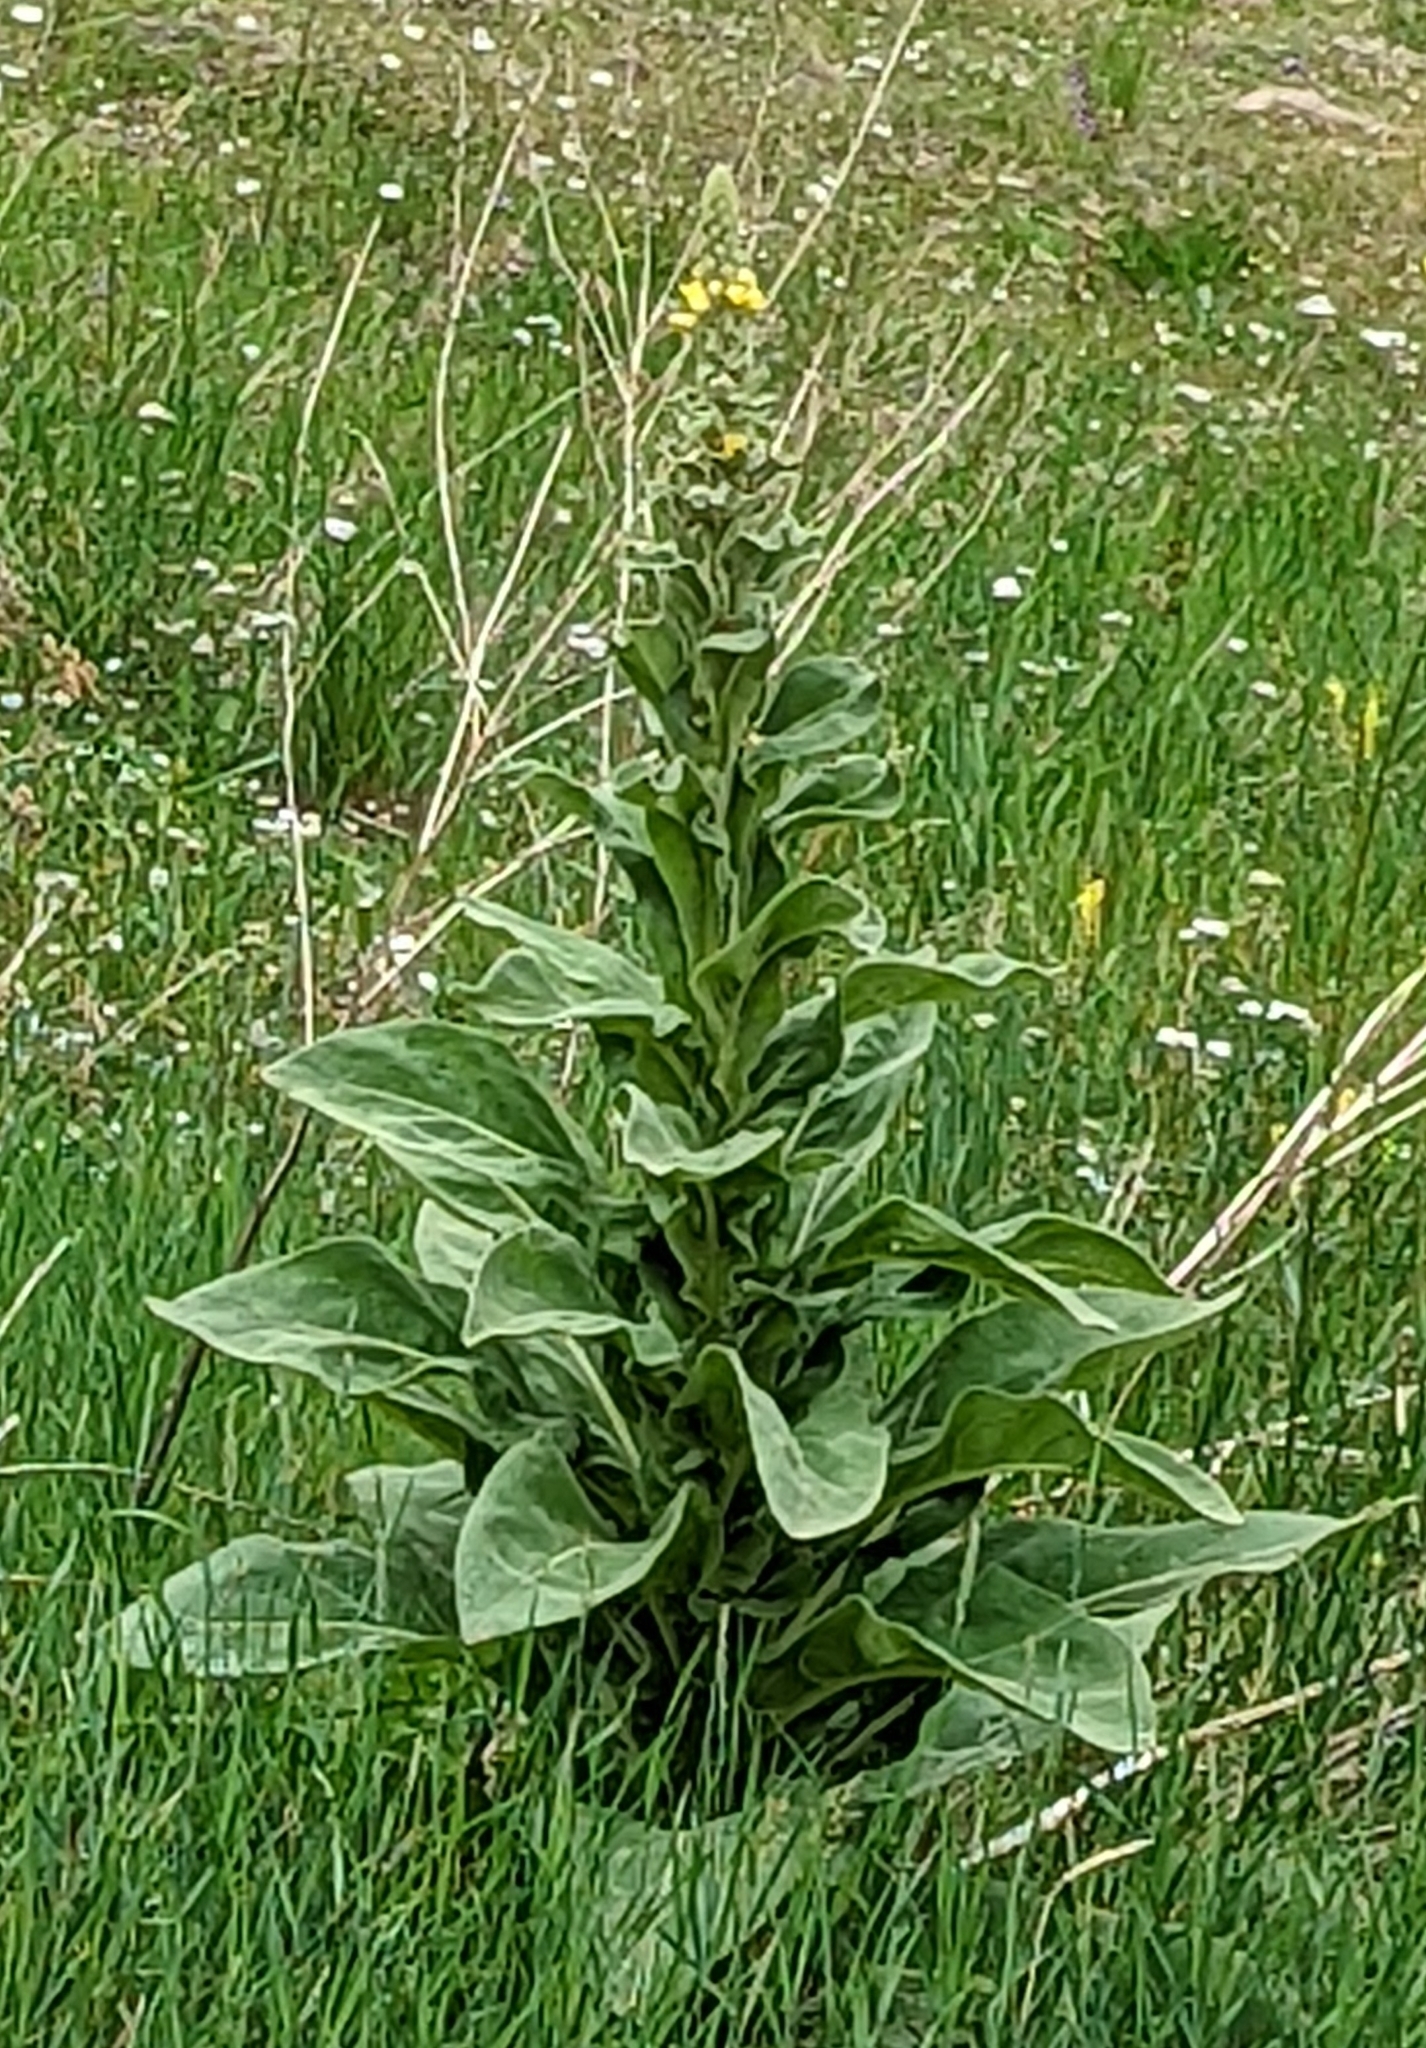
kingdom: Plantae
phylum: Tracheophyta
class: Magnoliopsida
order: Lamiales
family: Scrophulariaceae
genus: Verbascum
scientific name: Verbascum thapsus
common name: Common mullein
